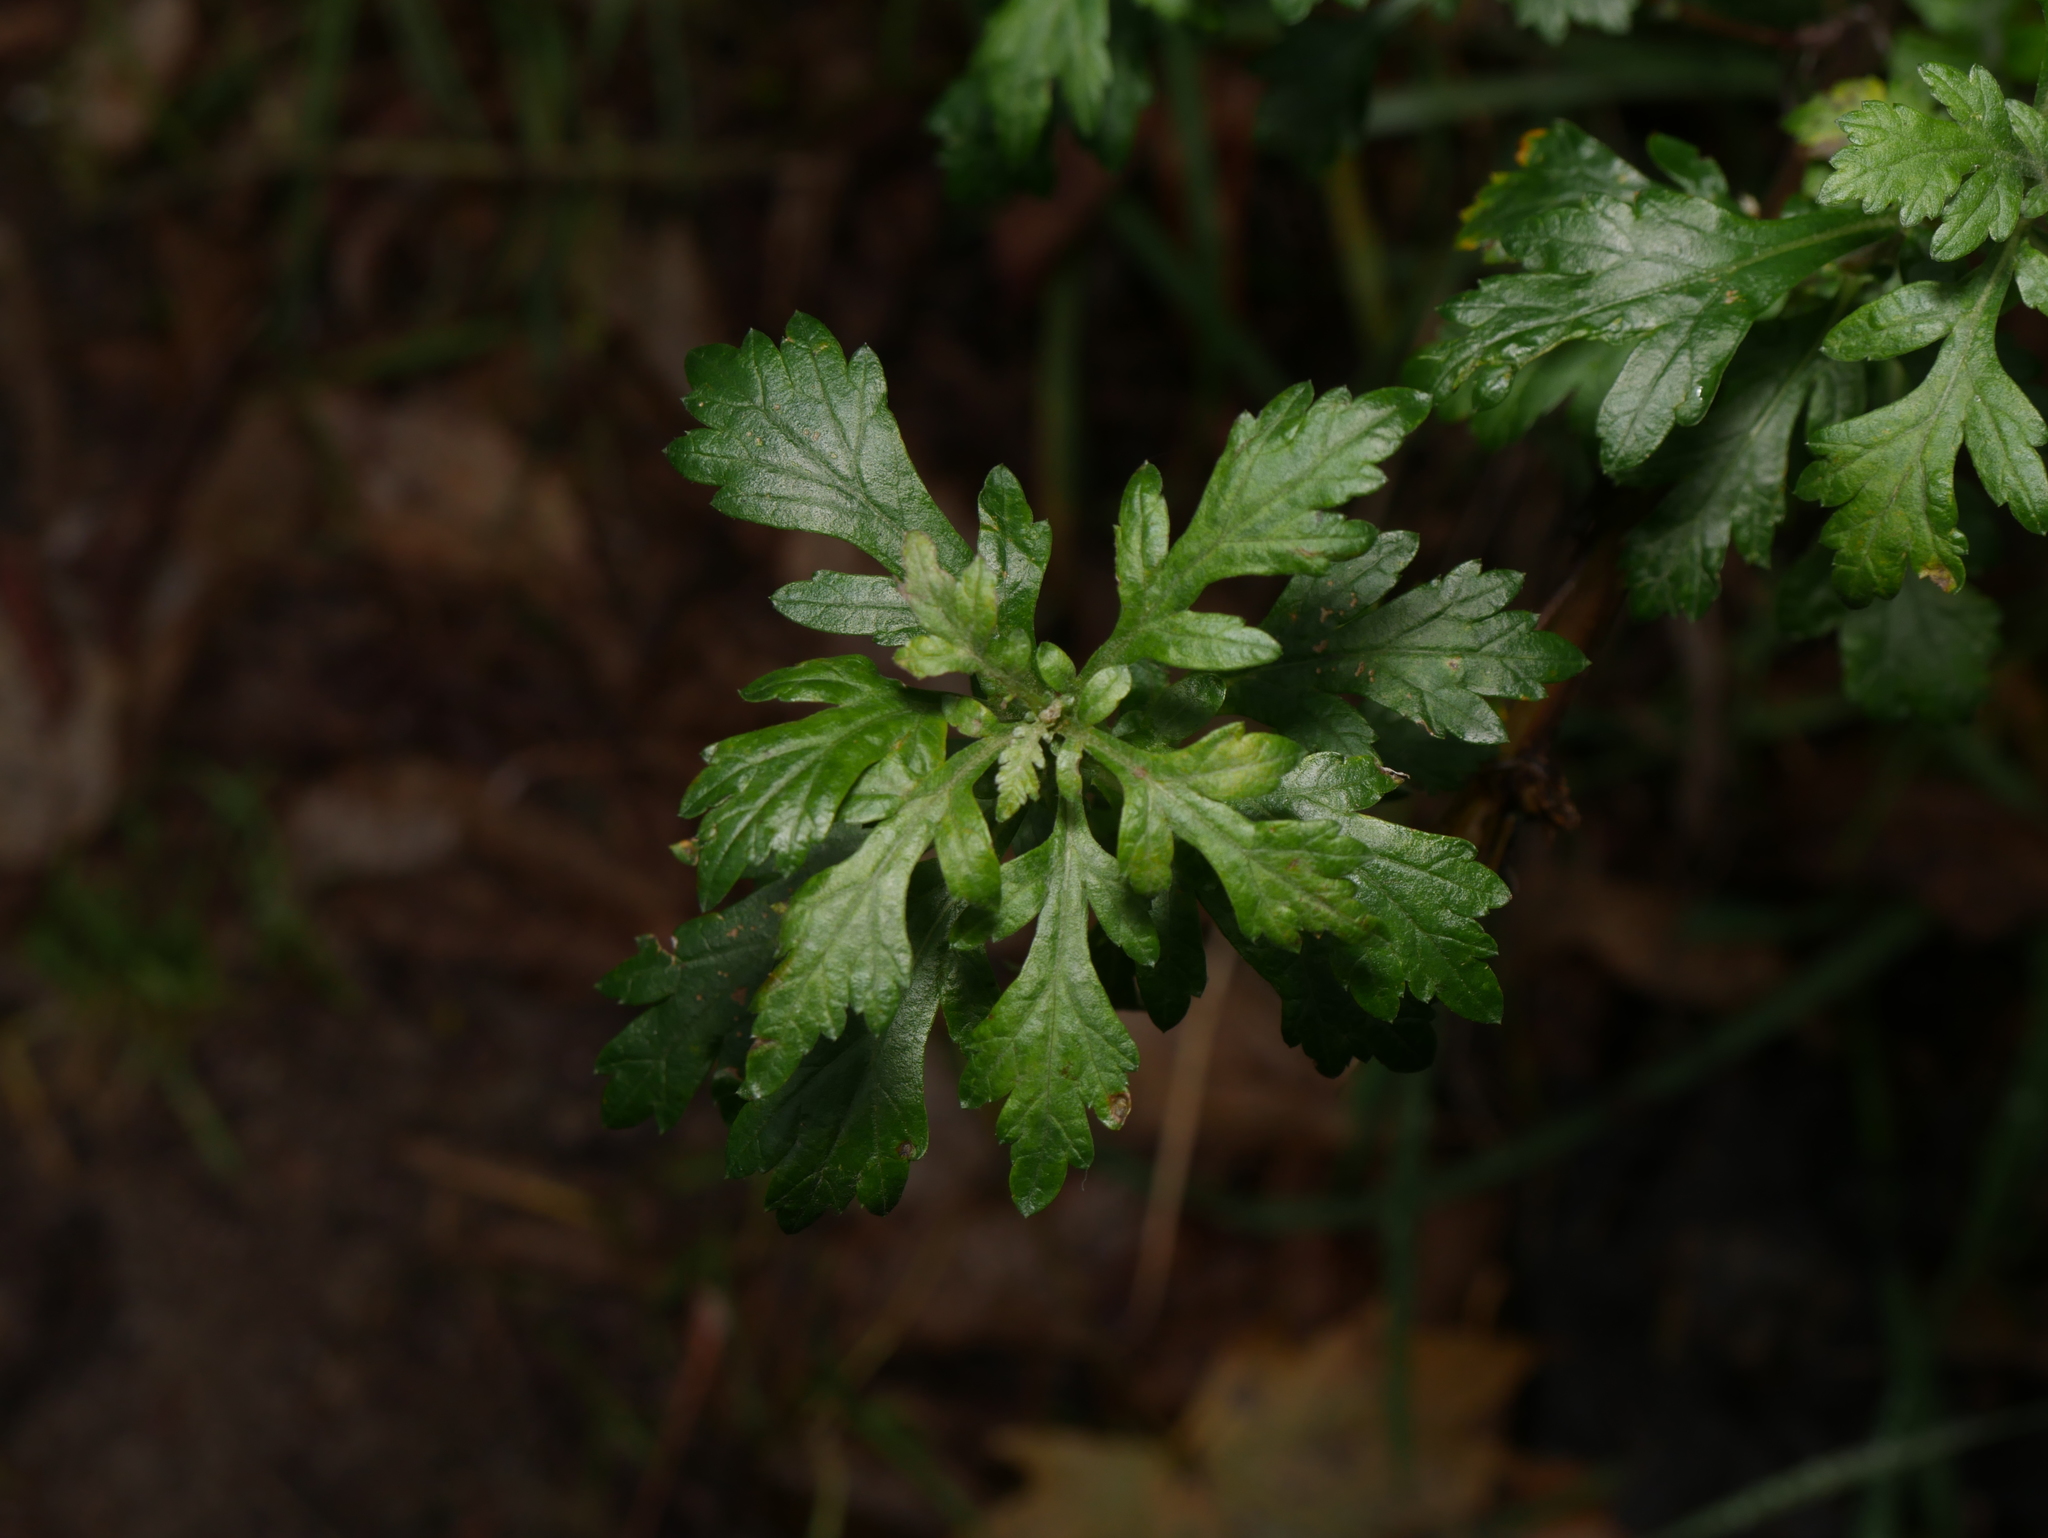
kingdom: Plantae
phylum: Tracheophyta
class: Magnoliopsida
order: Asterales
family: Asteraceae
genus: Artemisia
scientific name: Artemisia vulgaris
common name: Mugwort
